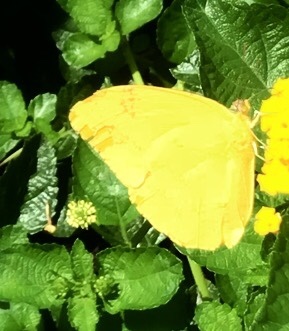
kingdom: Animalia
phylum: Arthropoda
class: Insecta
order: Lepidoptera
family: Pieridae
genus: Phoebis
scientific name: Phoebis agarithe
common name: Large orange sulphur
